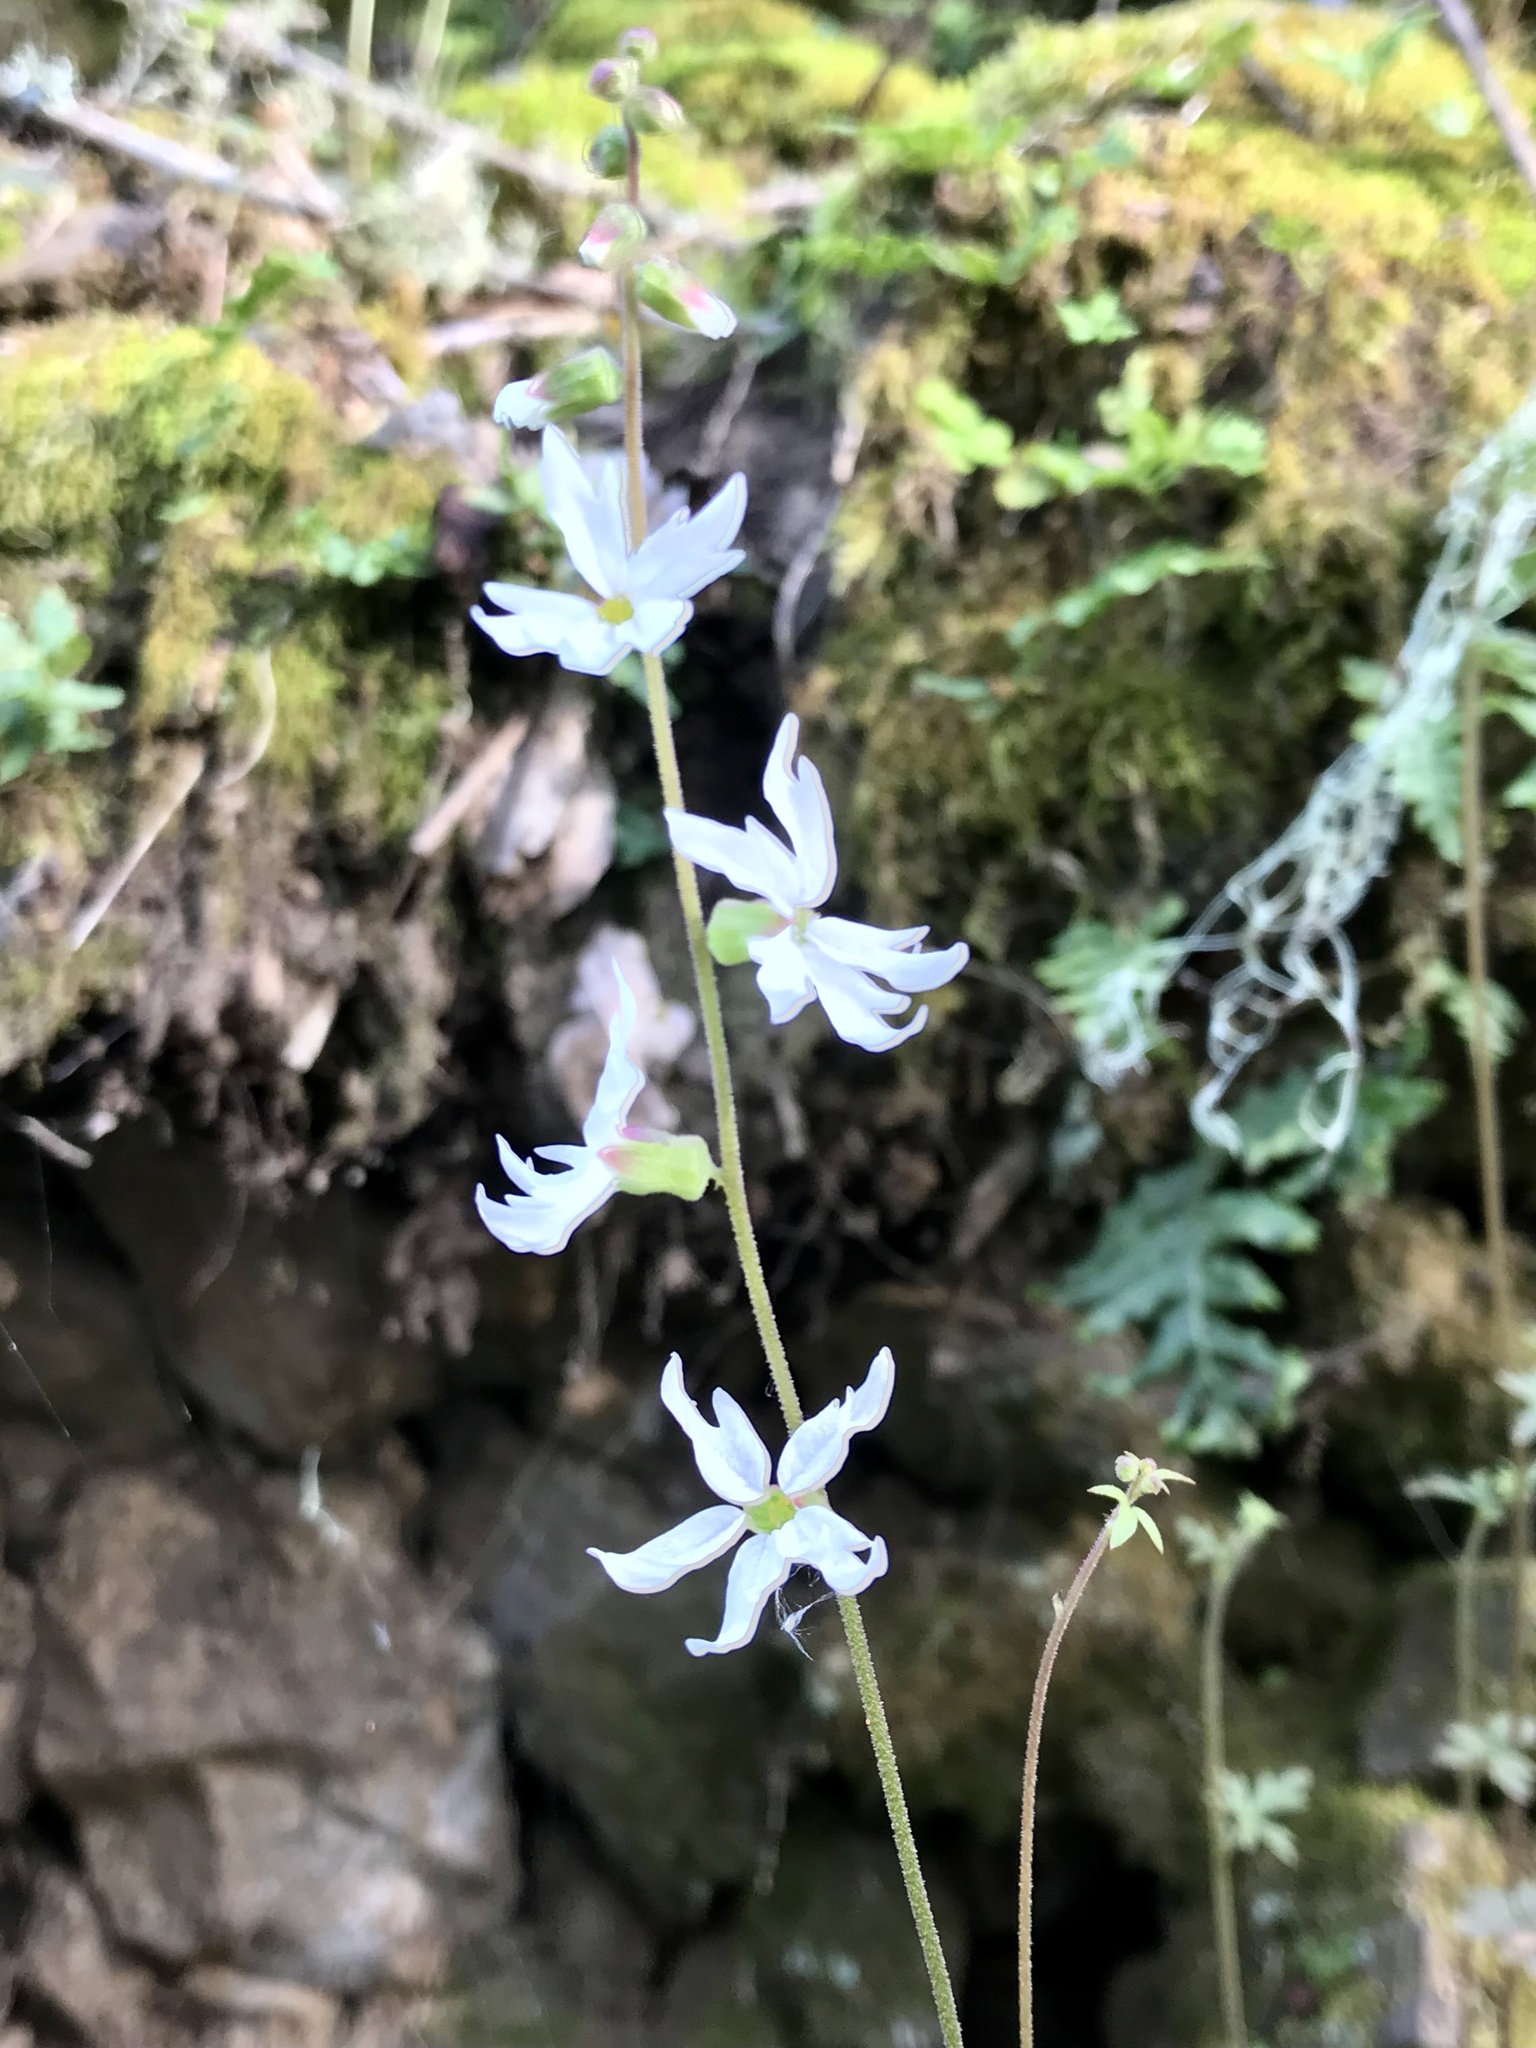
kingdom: Plantae
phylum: Tracheophyta
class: Magnoliopsida
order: Saxifragales
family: Saxifragaceae
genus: Lithophragma
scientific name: Lithophragma heterophyllum
